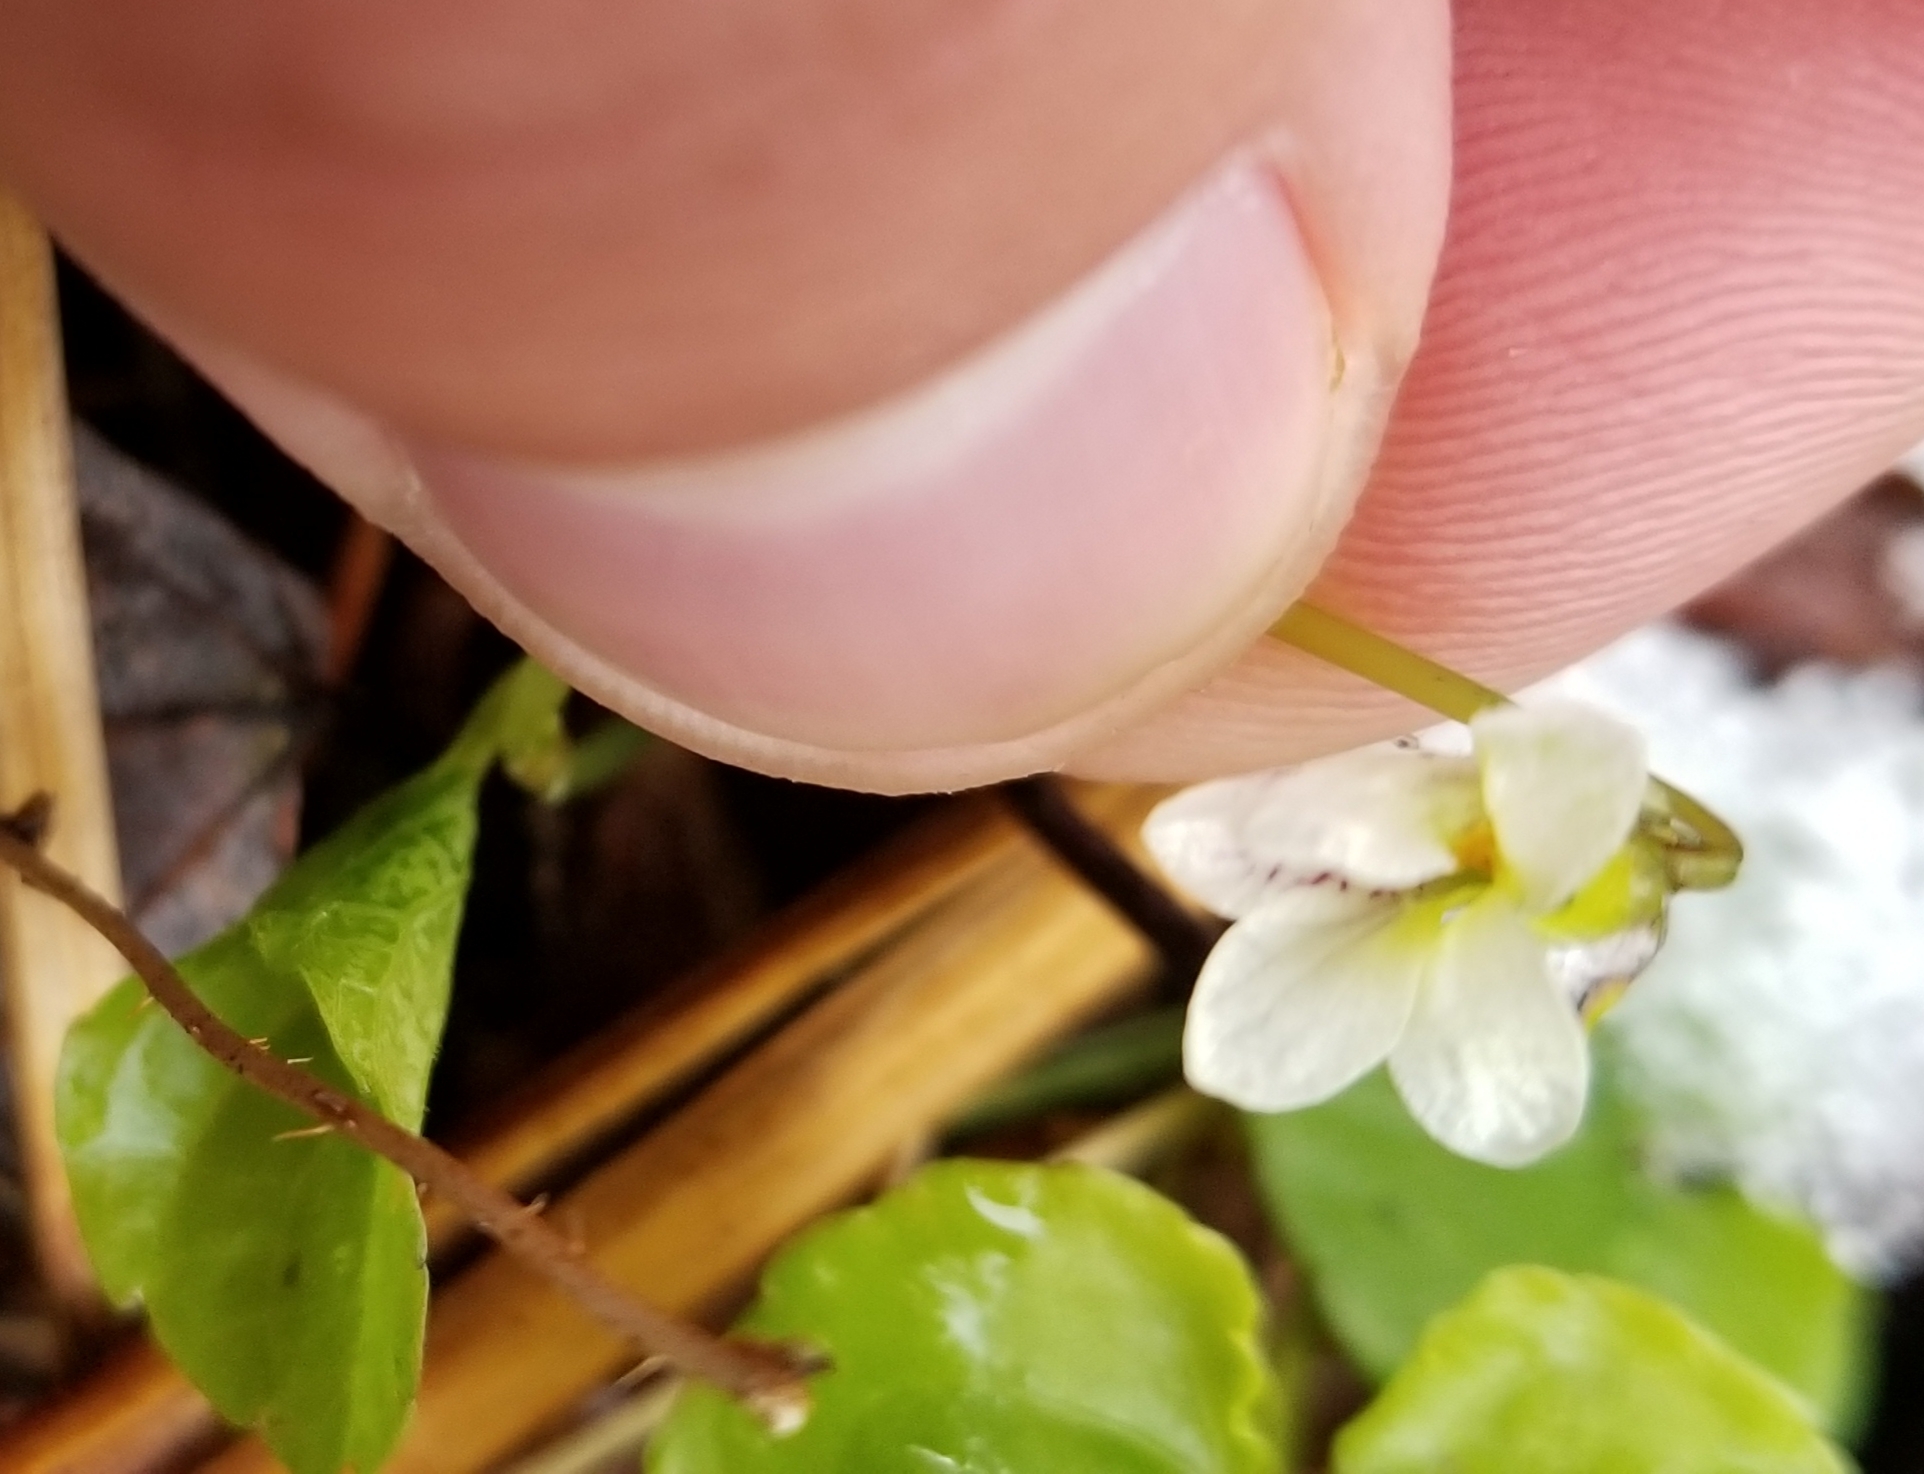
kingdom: Plantae
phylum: Tracheophyta
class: Magnoliopsida
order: Malpighiales
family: Violaceae
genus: Viola
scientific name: Viola minuscula
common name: Northern white violet
